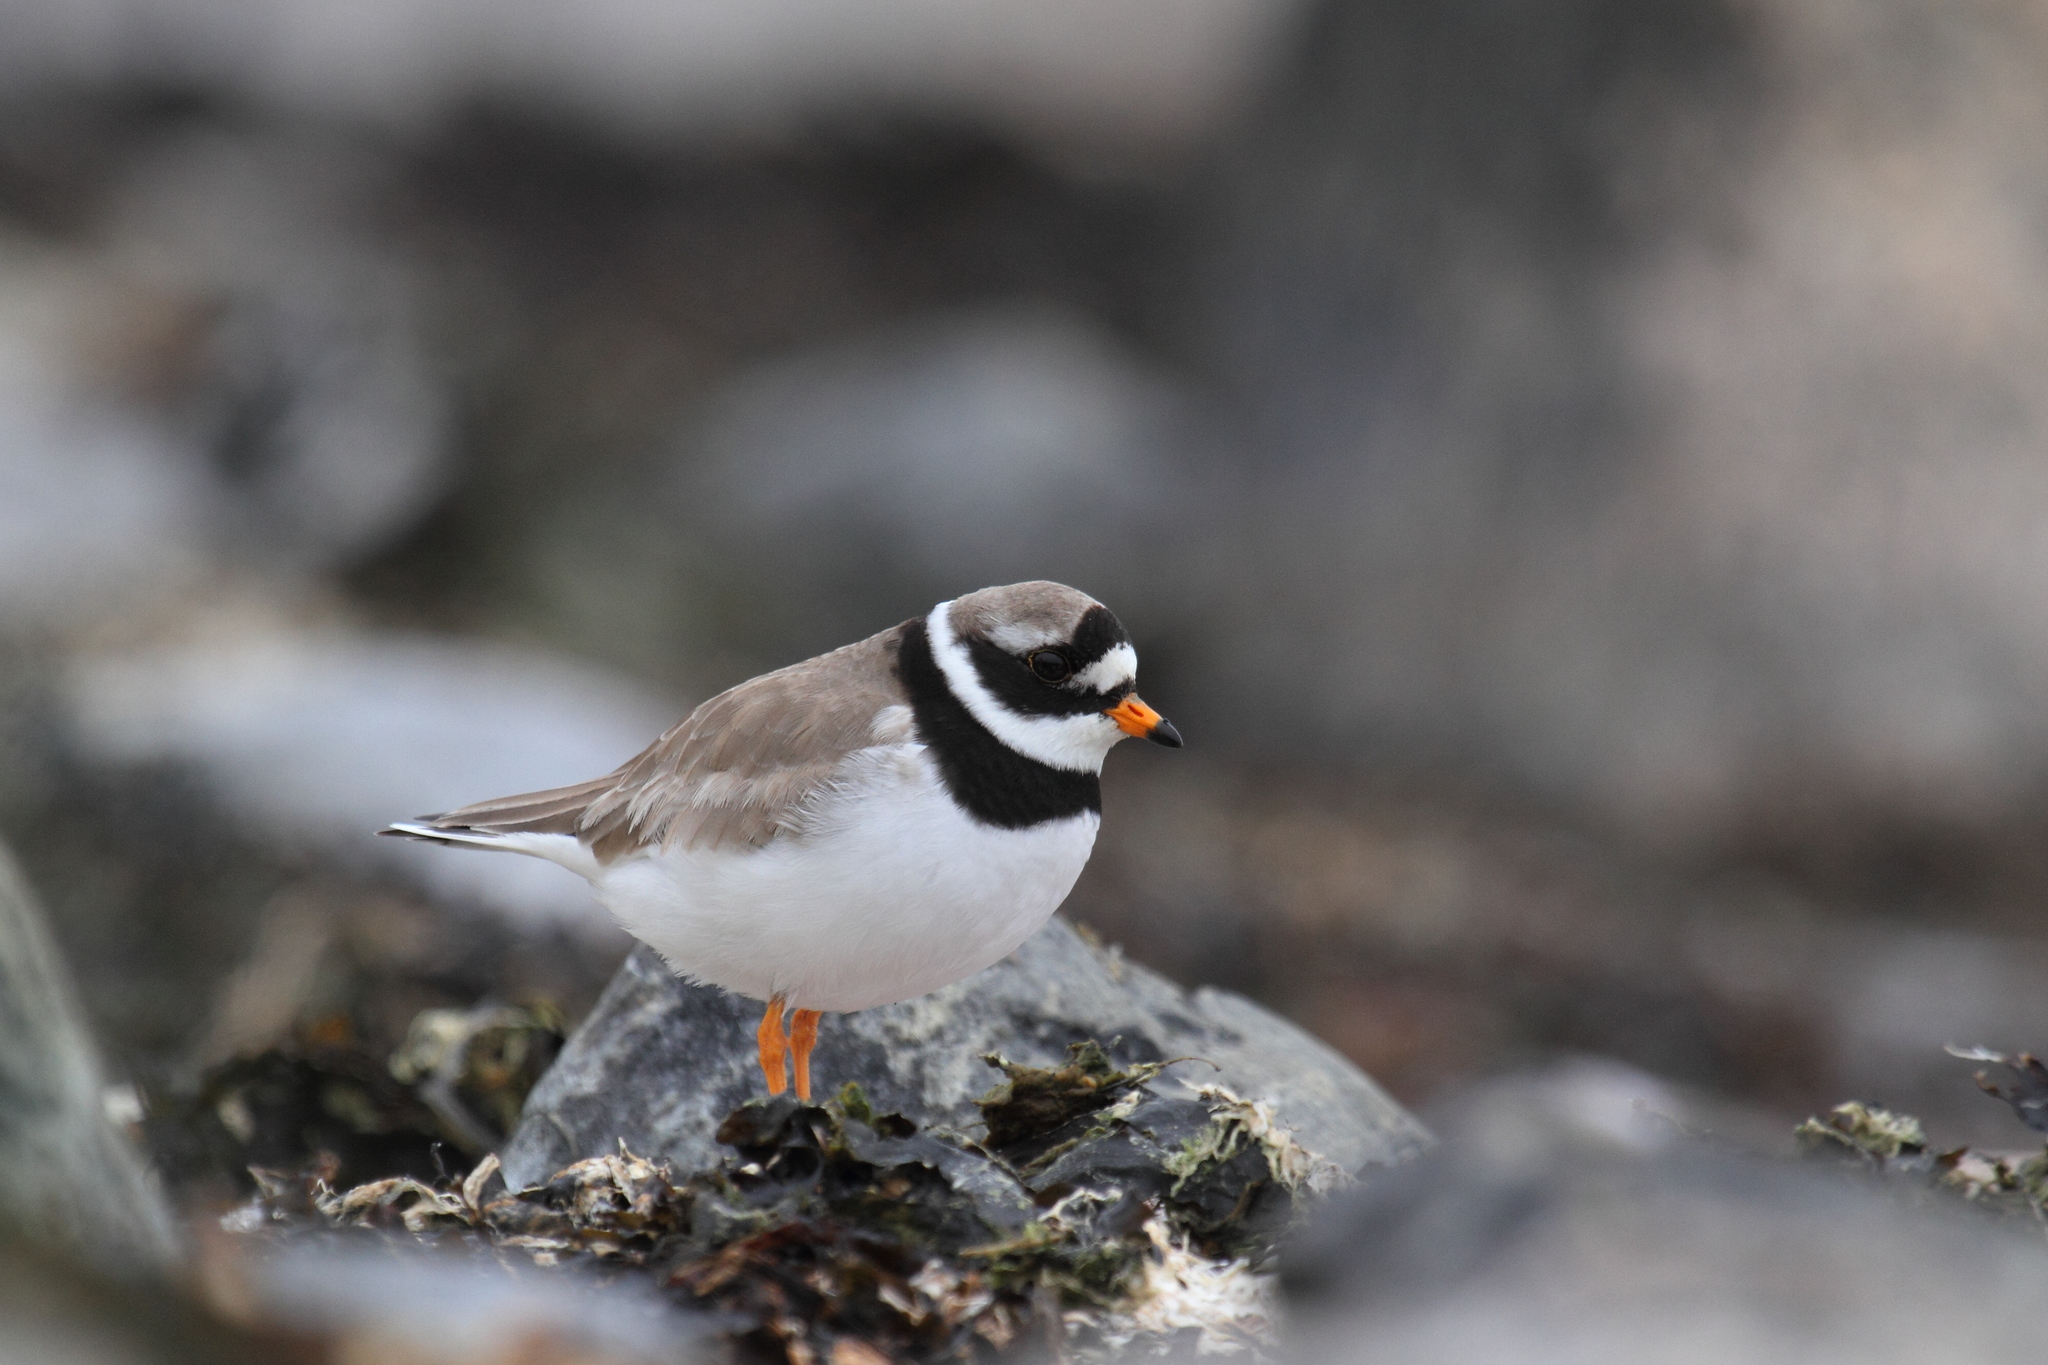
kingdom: Animalia
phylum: Chordata
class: Aves
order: Charadriiformes
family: Charadriidae
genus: Charadrius
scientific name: Charadrius hiaticula
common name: Common ringed plover
